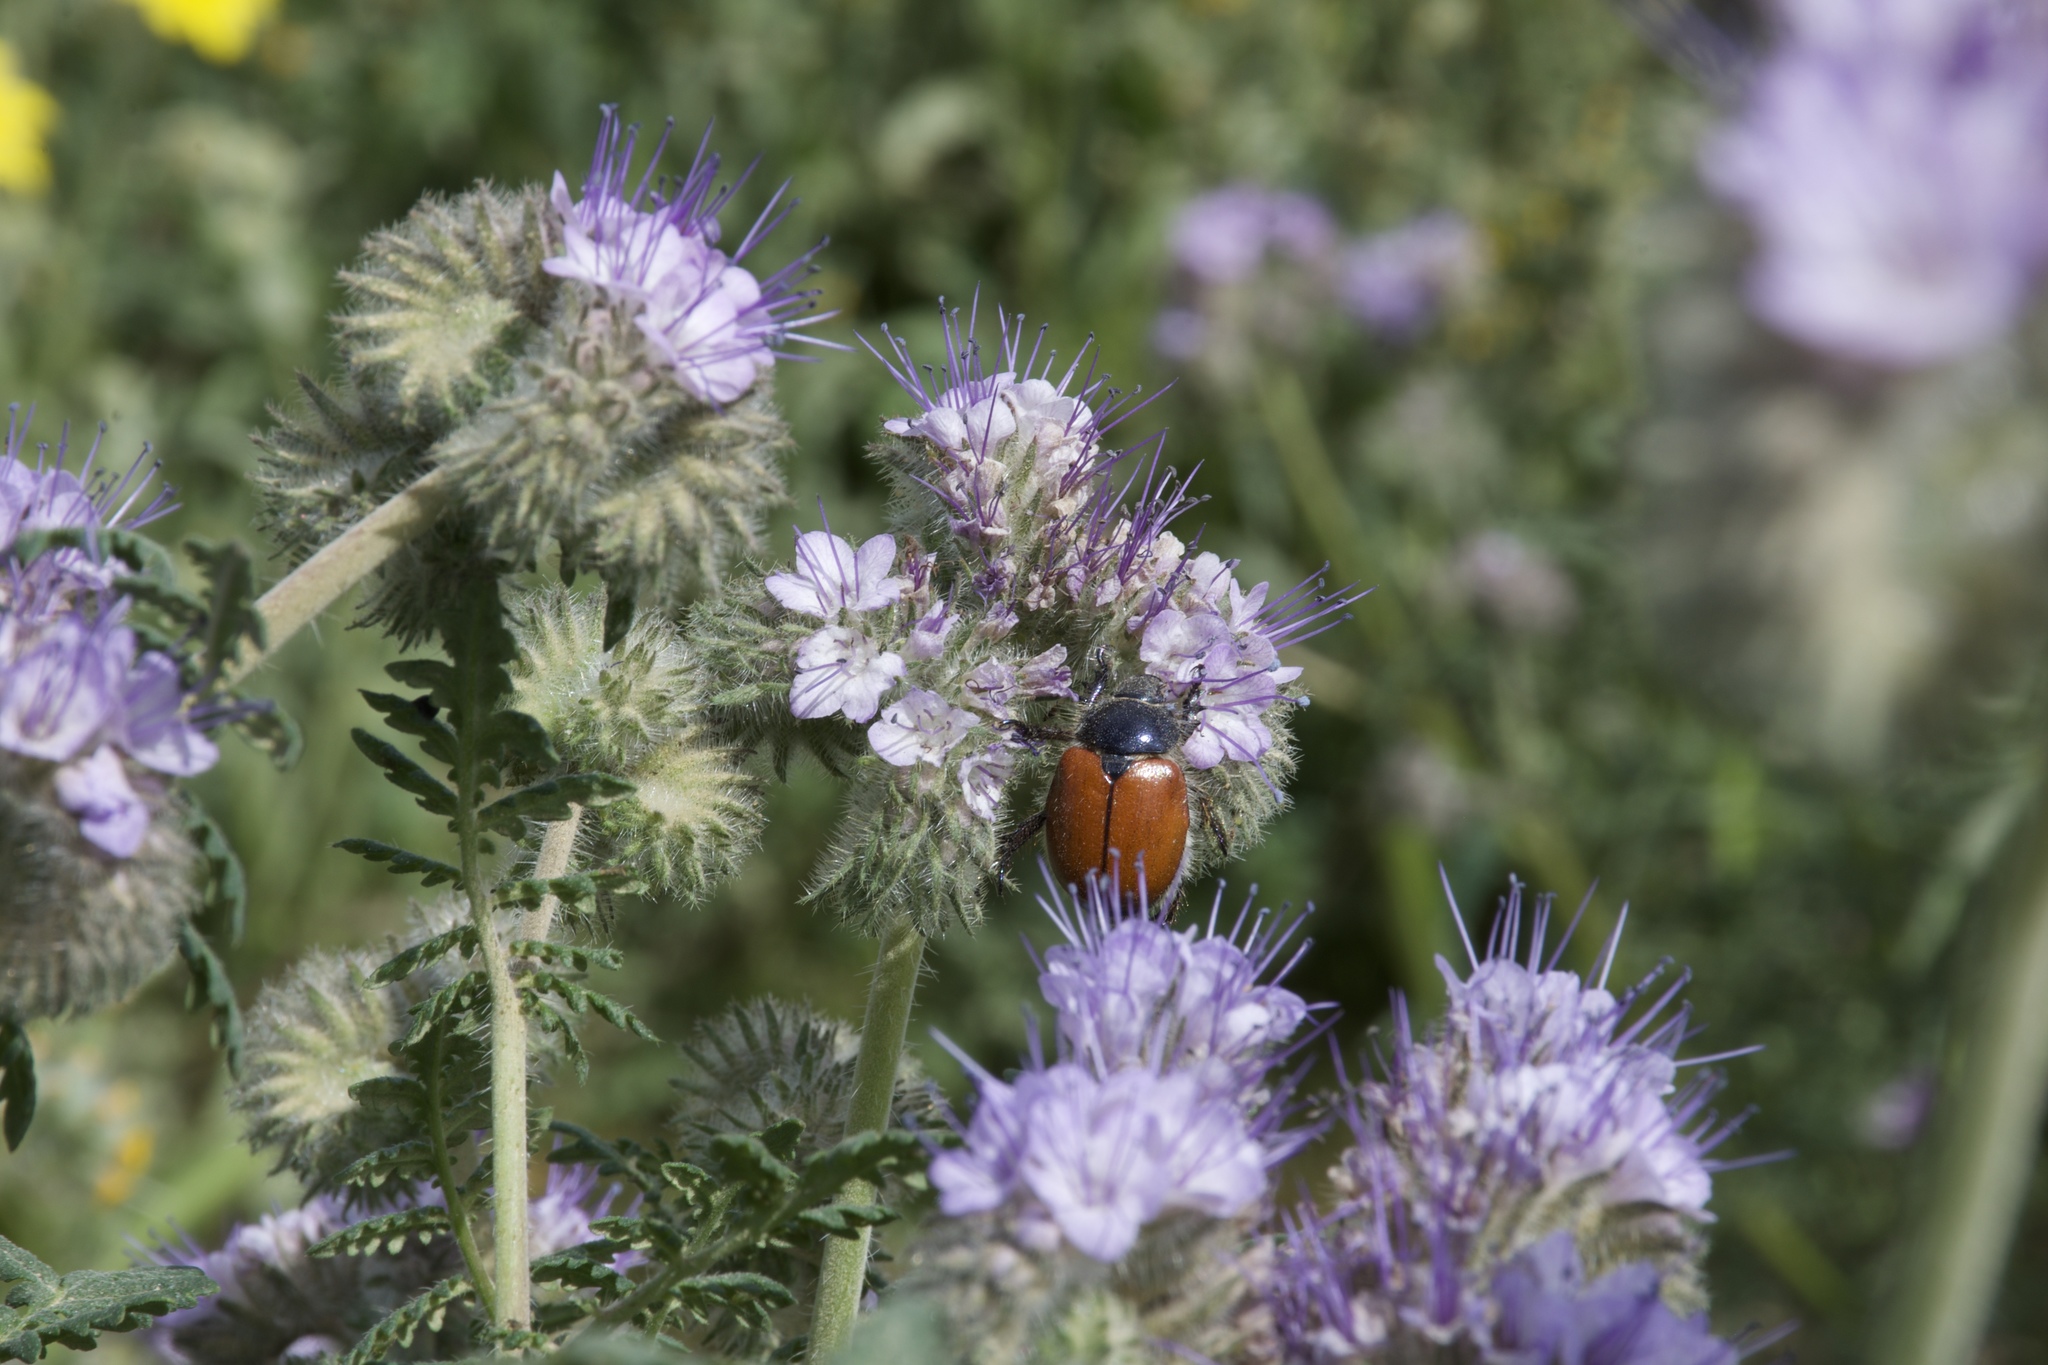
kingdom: Animalia
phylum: Arthropoda
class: Insecta
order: Coleoptera
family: Scarabaeidae
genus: Paracotalpa
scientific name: Paracotalpa ursina
